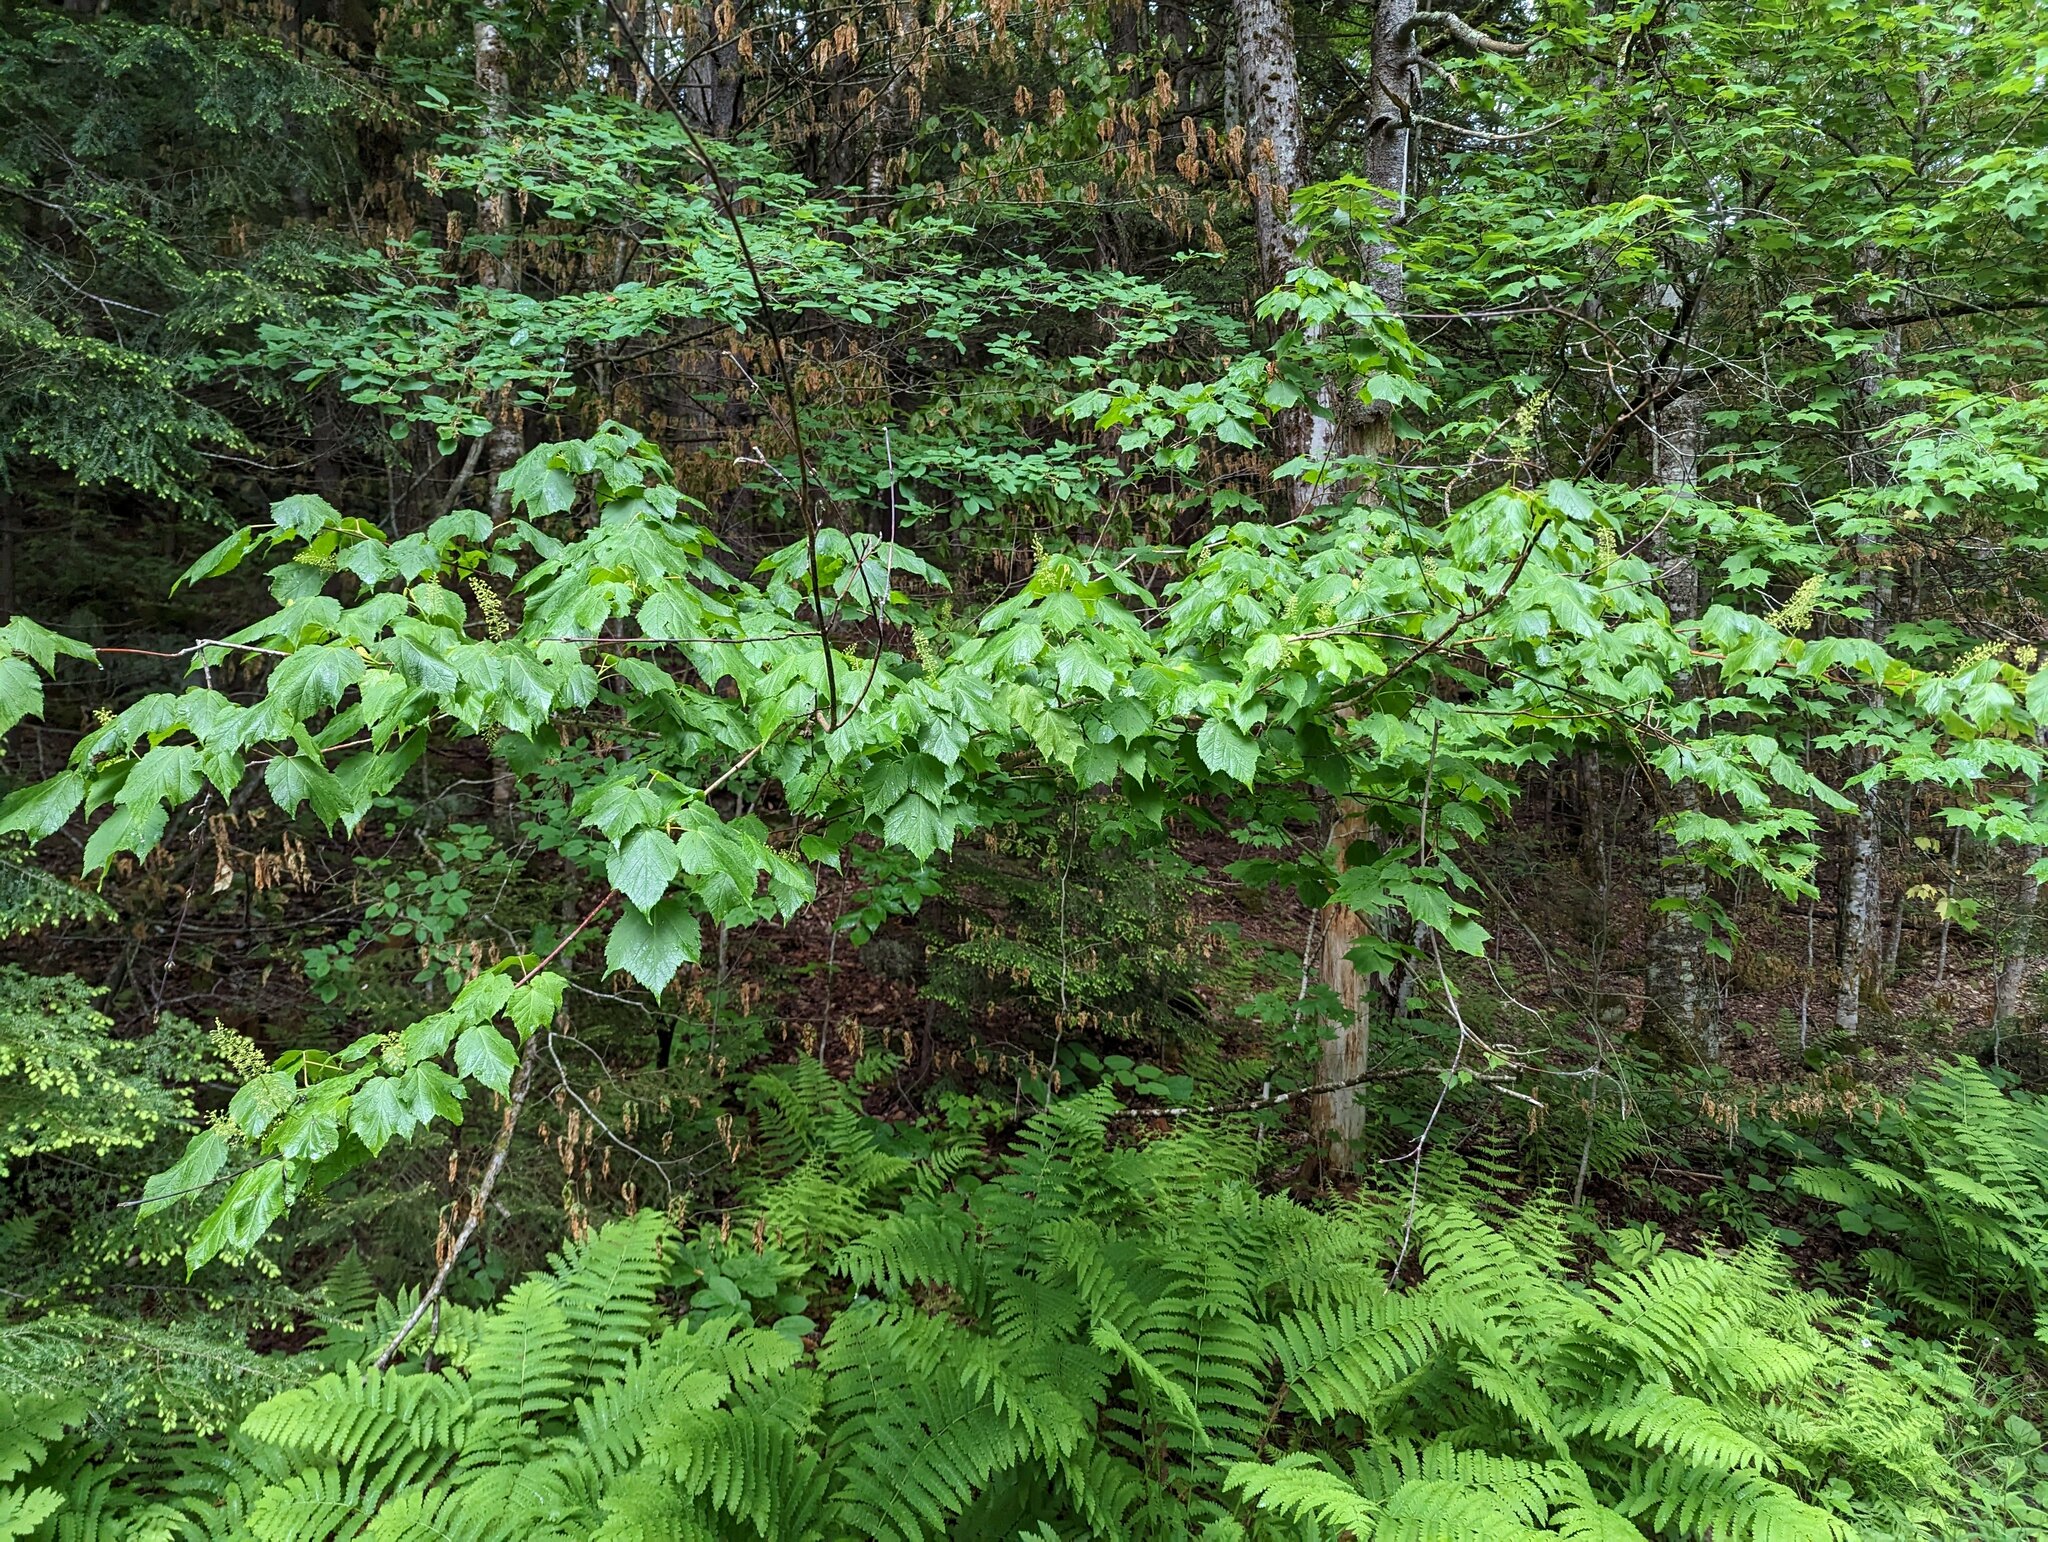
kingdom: Plantae
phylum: Tracheophyta
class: Magnoliopsida
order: Sapindales
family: Sapindaceae
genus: Acer
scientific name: Acer spicatum
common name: Mountain maple
